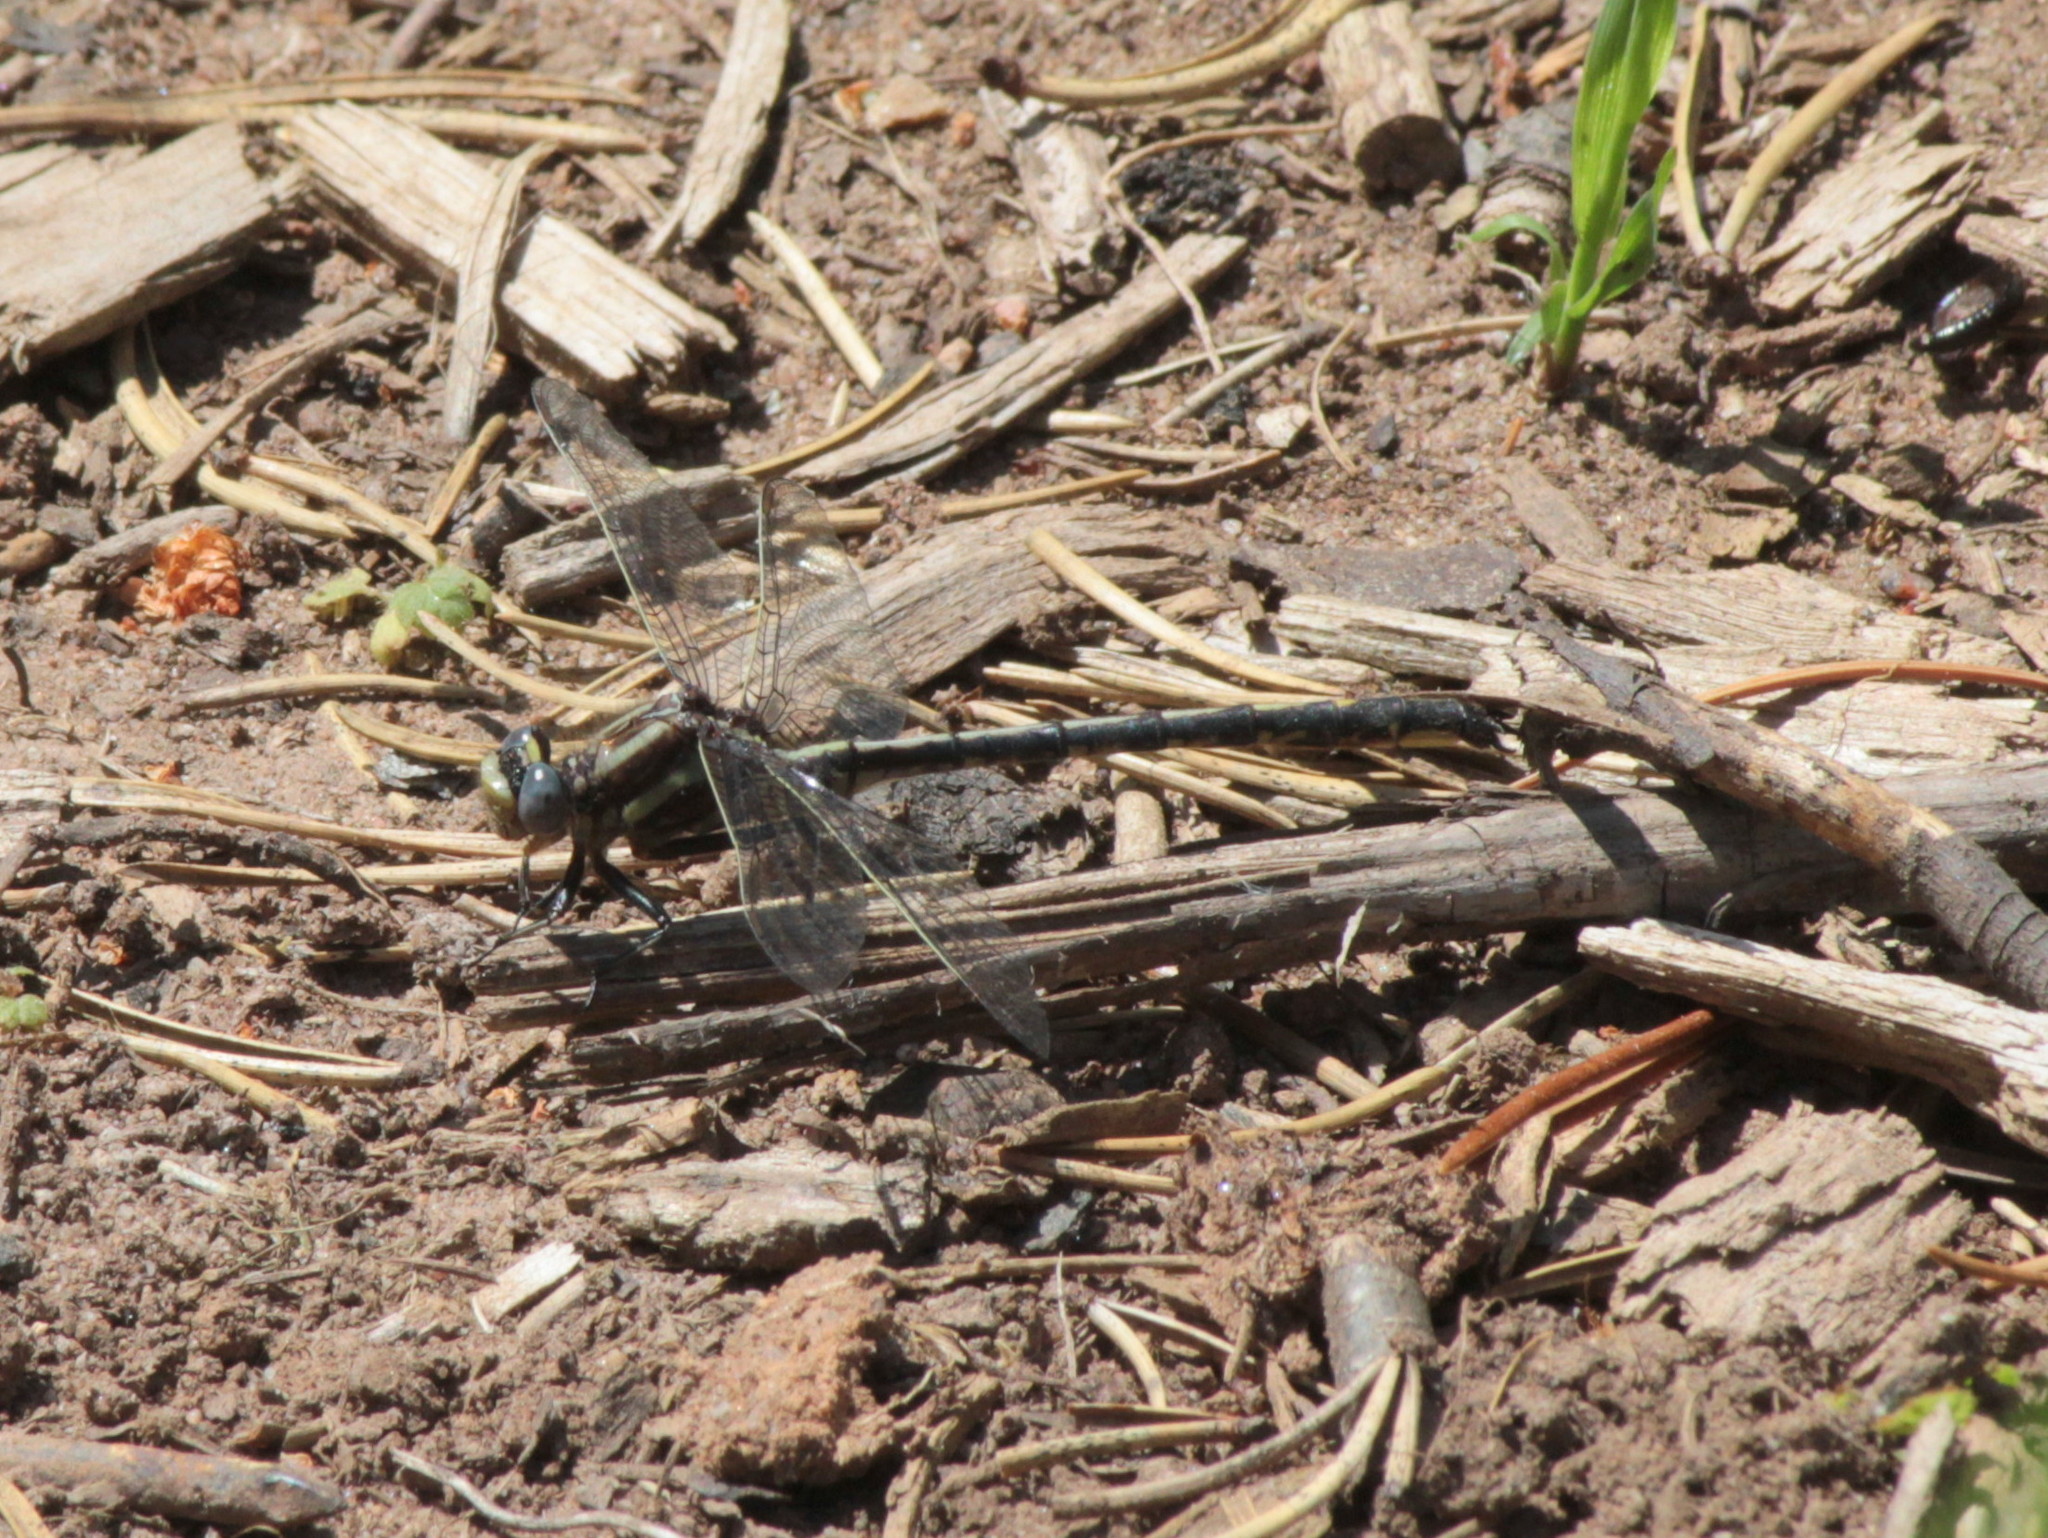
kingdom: Animalia
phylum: Arthropoda
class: Insecta
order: Odonata
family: Gomphidae
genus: Phanogomphus
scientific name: Phanogomphus spicatus
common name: Dusky clubtail
